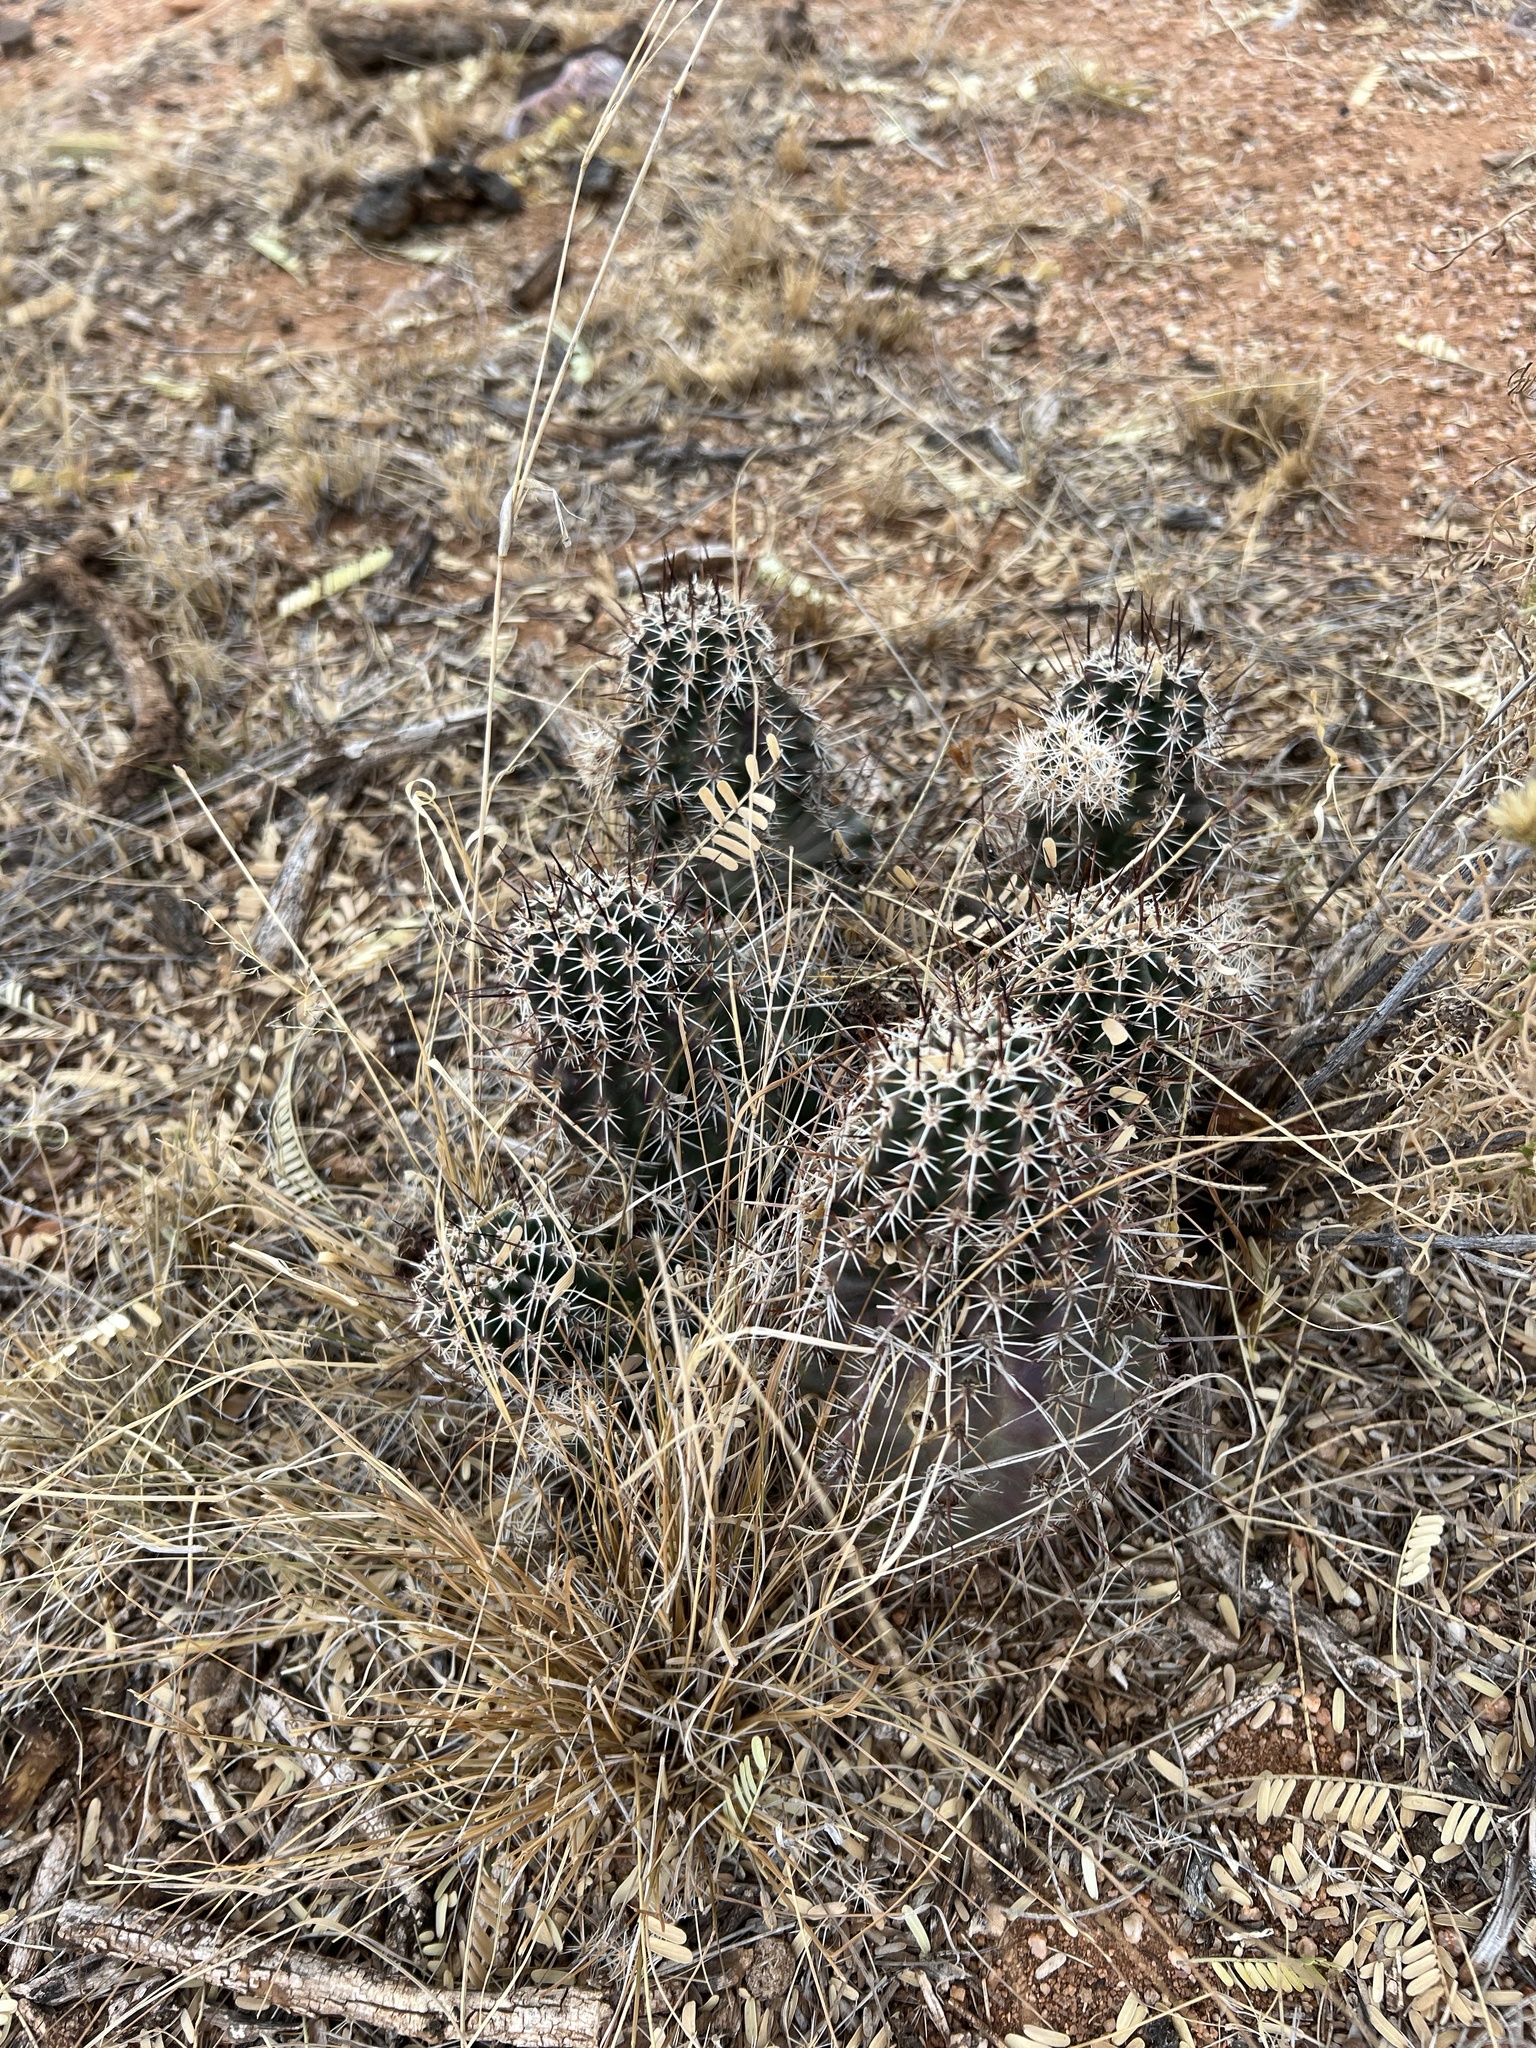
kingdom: Plantae
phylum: Tracheophyta
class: Magnoliopsida
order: Caryophyllales
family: Cactaceae
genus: Echinocereus
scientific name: Echinocereus fasciculatus
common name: Bundle hedgehog
